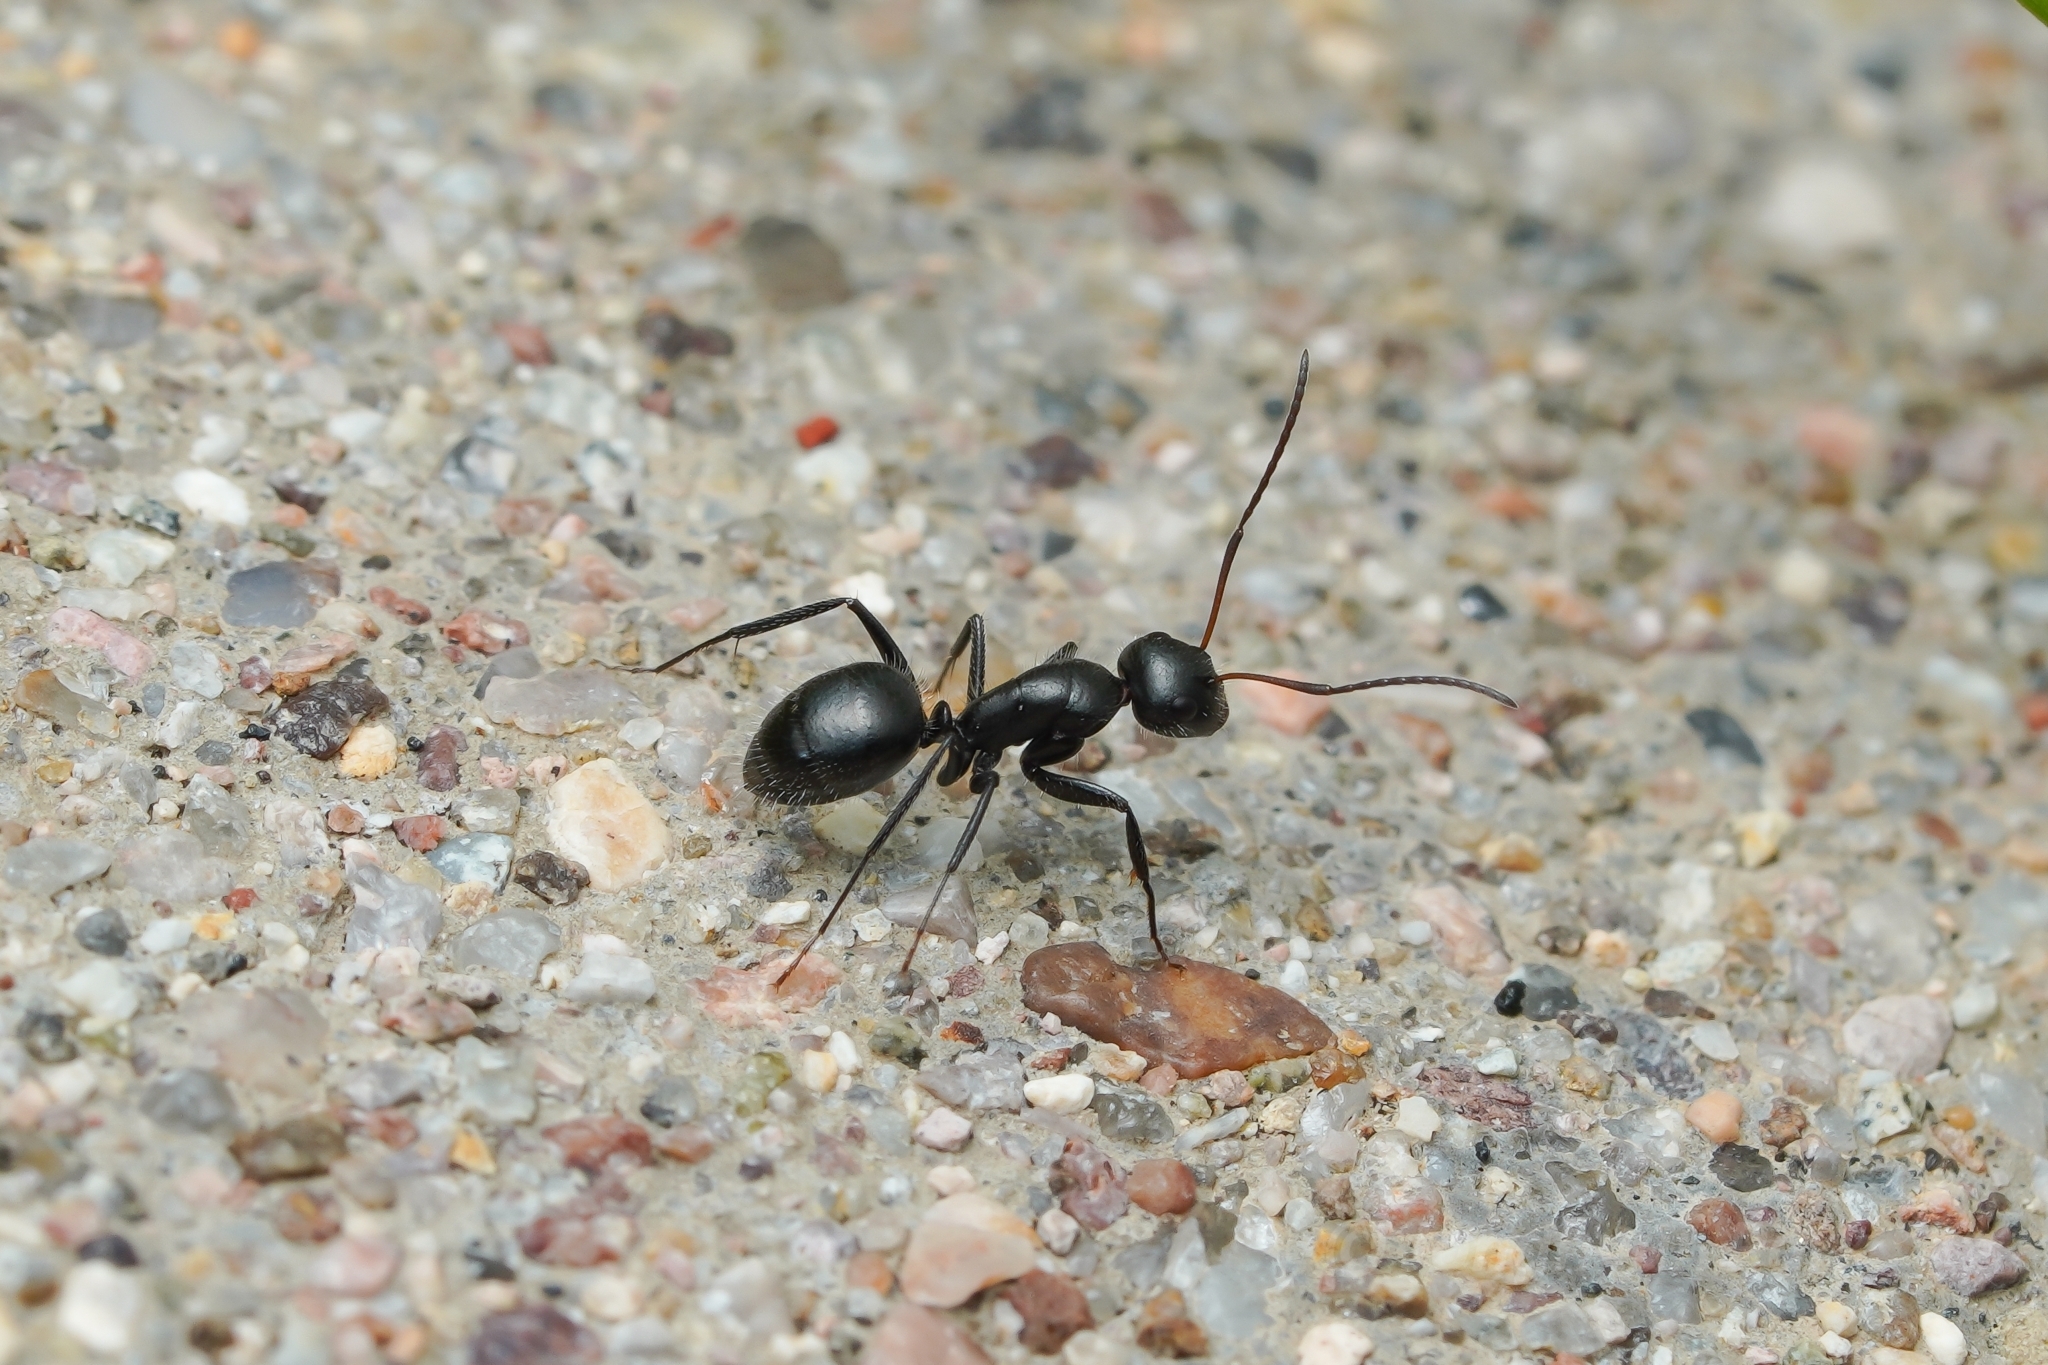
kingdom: Animalia
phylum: Arthropoda
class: Insecta
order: Hymenoptera
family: Formicidae
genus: Camponotus
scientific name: Camponotus mina
